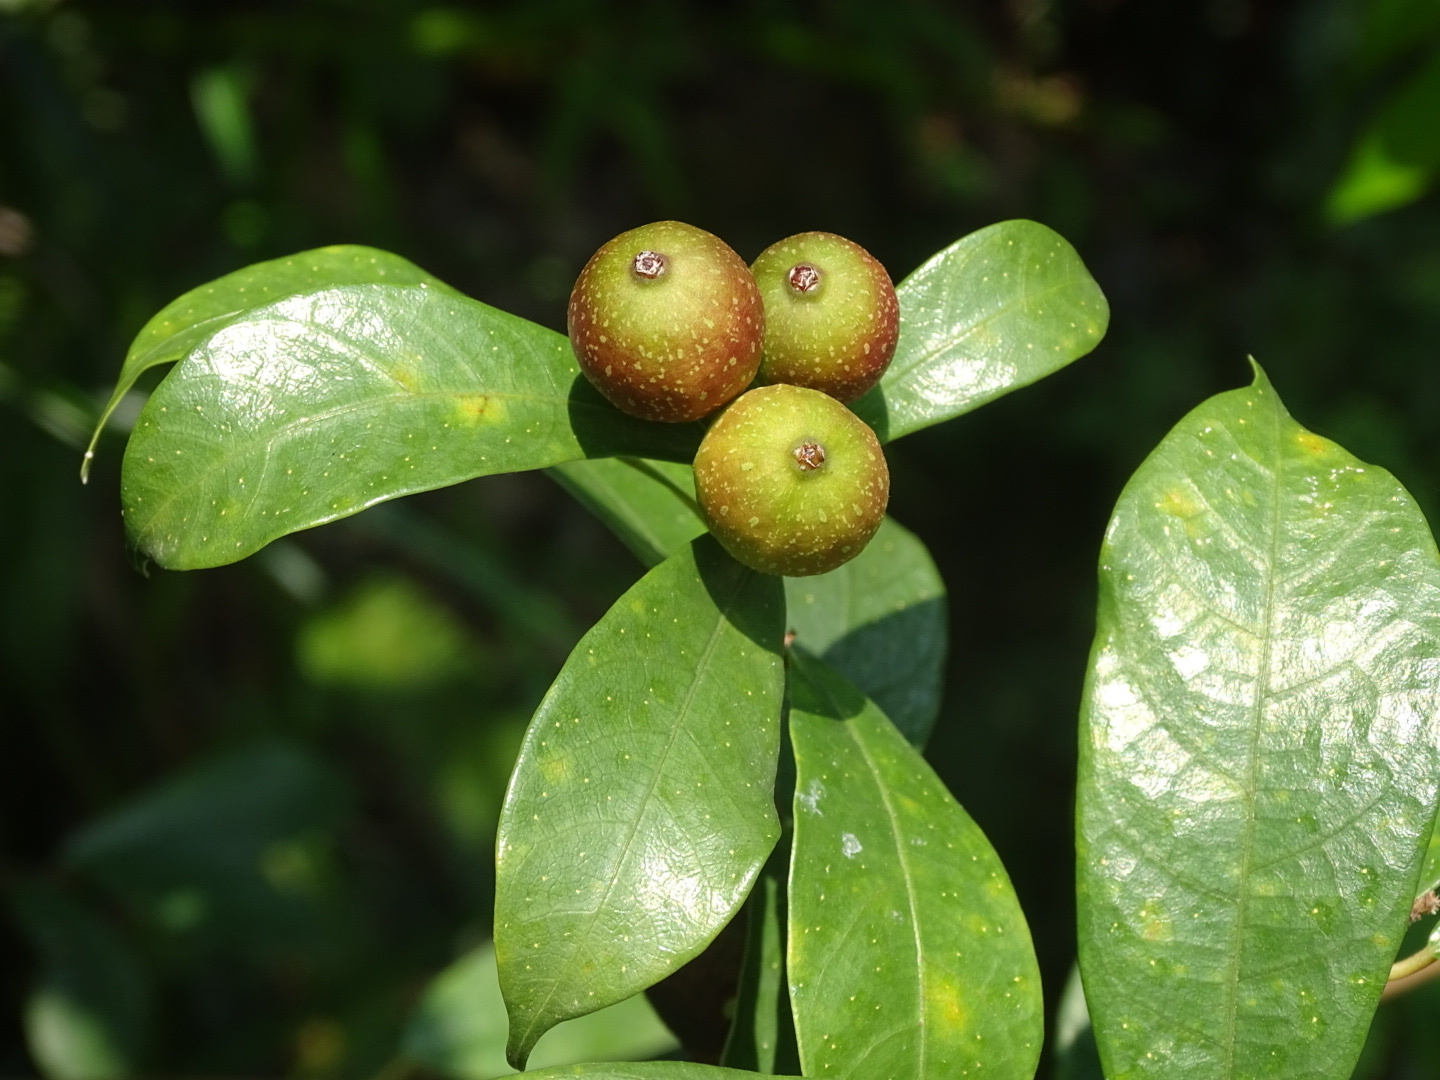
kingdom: Plantae
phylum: Tracheophyta
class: Magnoliopsida
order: Rosales
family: Moraceae
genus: Ficus
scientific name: Ficus pyriformis
